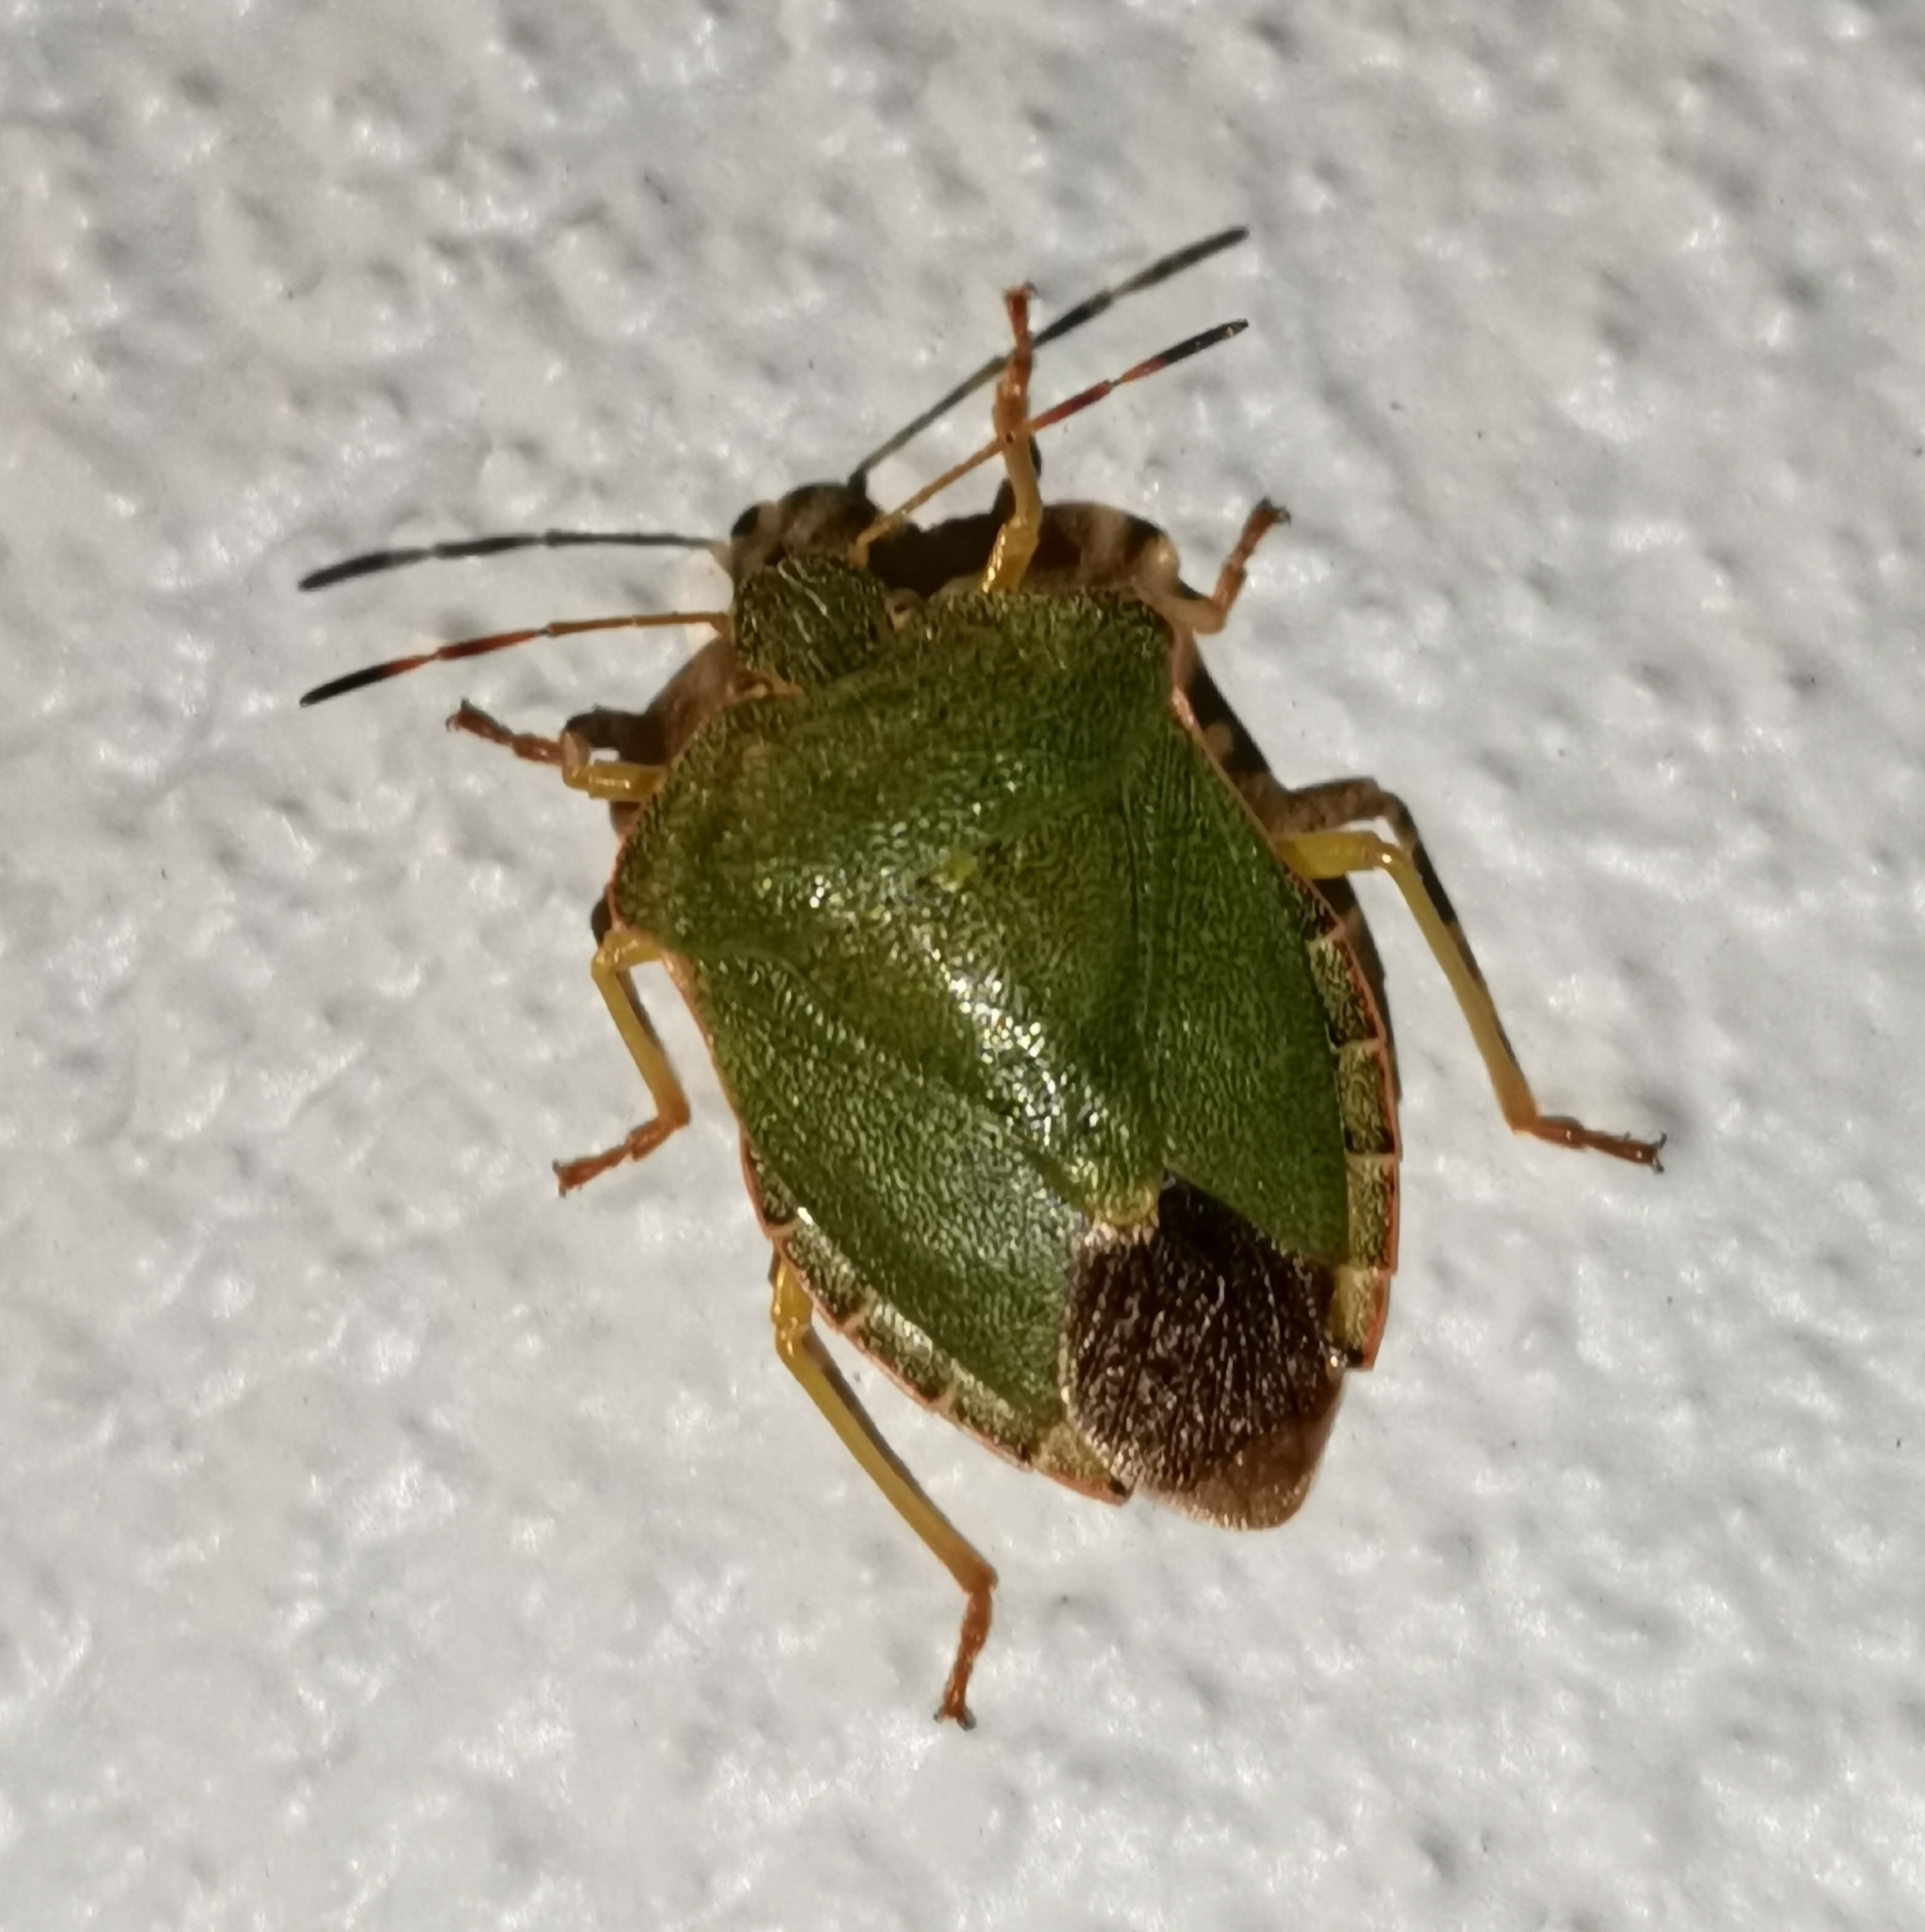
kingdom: Animalia
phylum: Arthropoda
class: Insecta
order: Hemiptera
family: Pentatomidae
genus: Palomena
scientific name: Palomena prasina
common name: Green shieldbug
